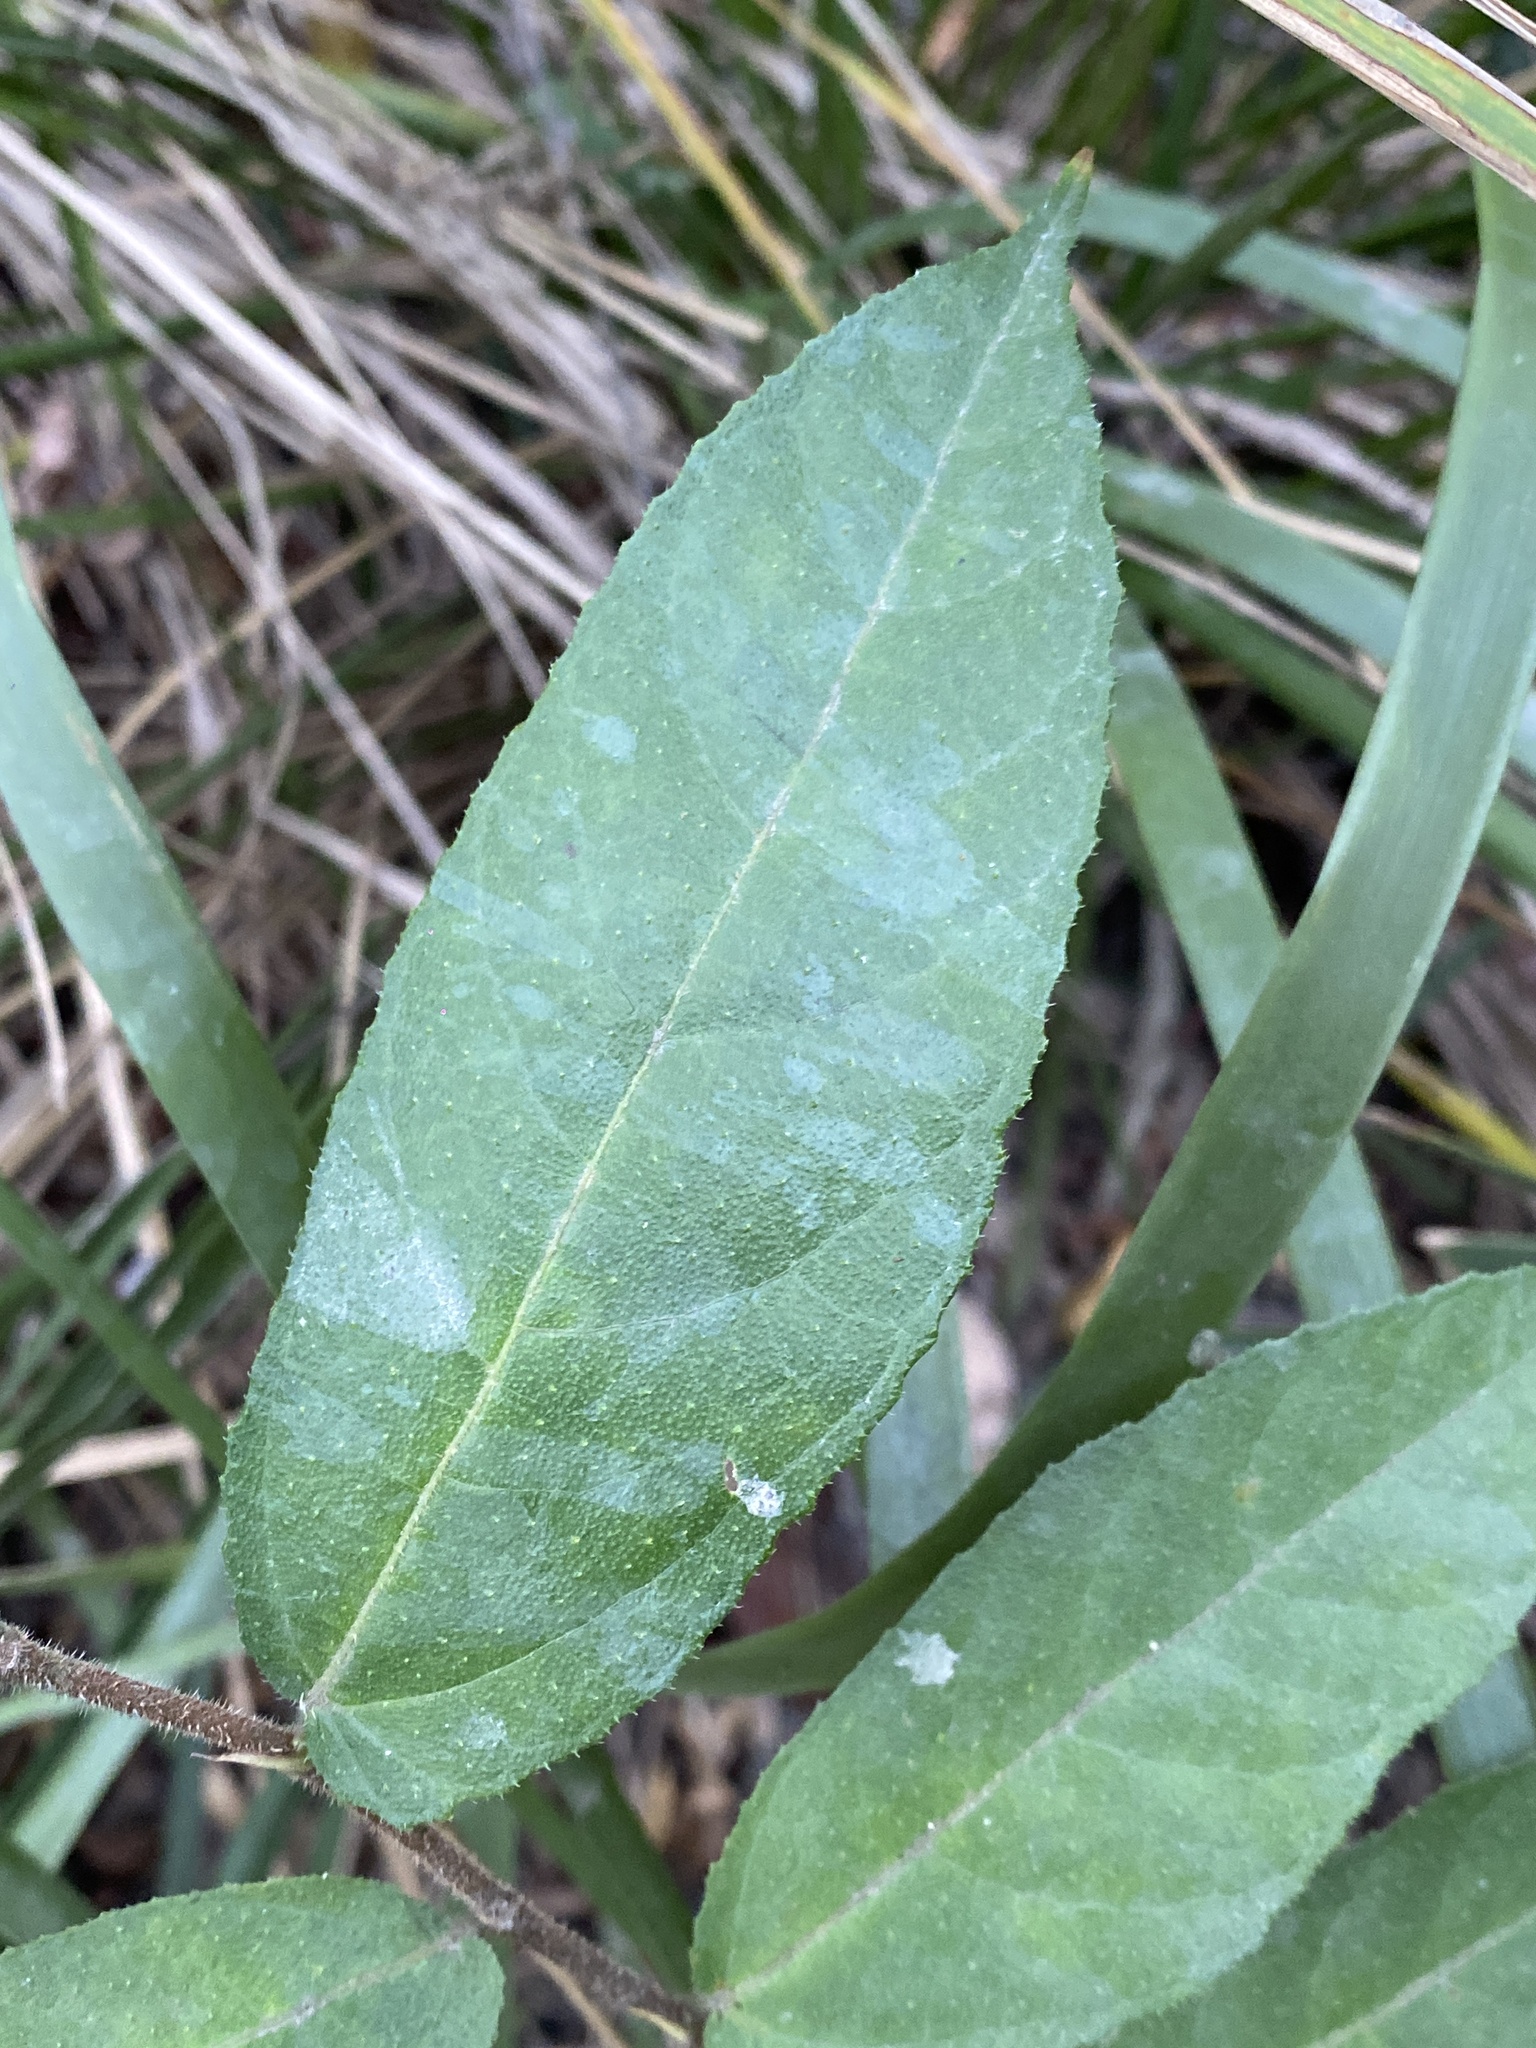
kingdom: Plantae
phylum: Tracheophyta
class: Magnoliopsida
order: Rosales
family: Moraceae
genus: Ficus
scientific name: Ficus coronata
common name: Creek sandpaper fig
